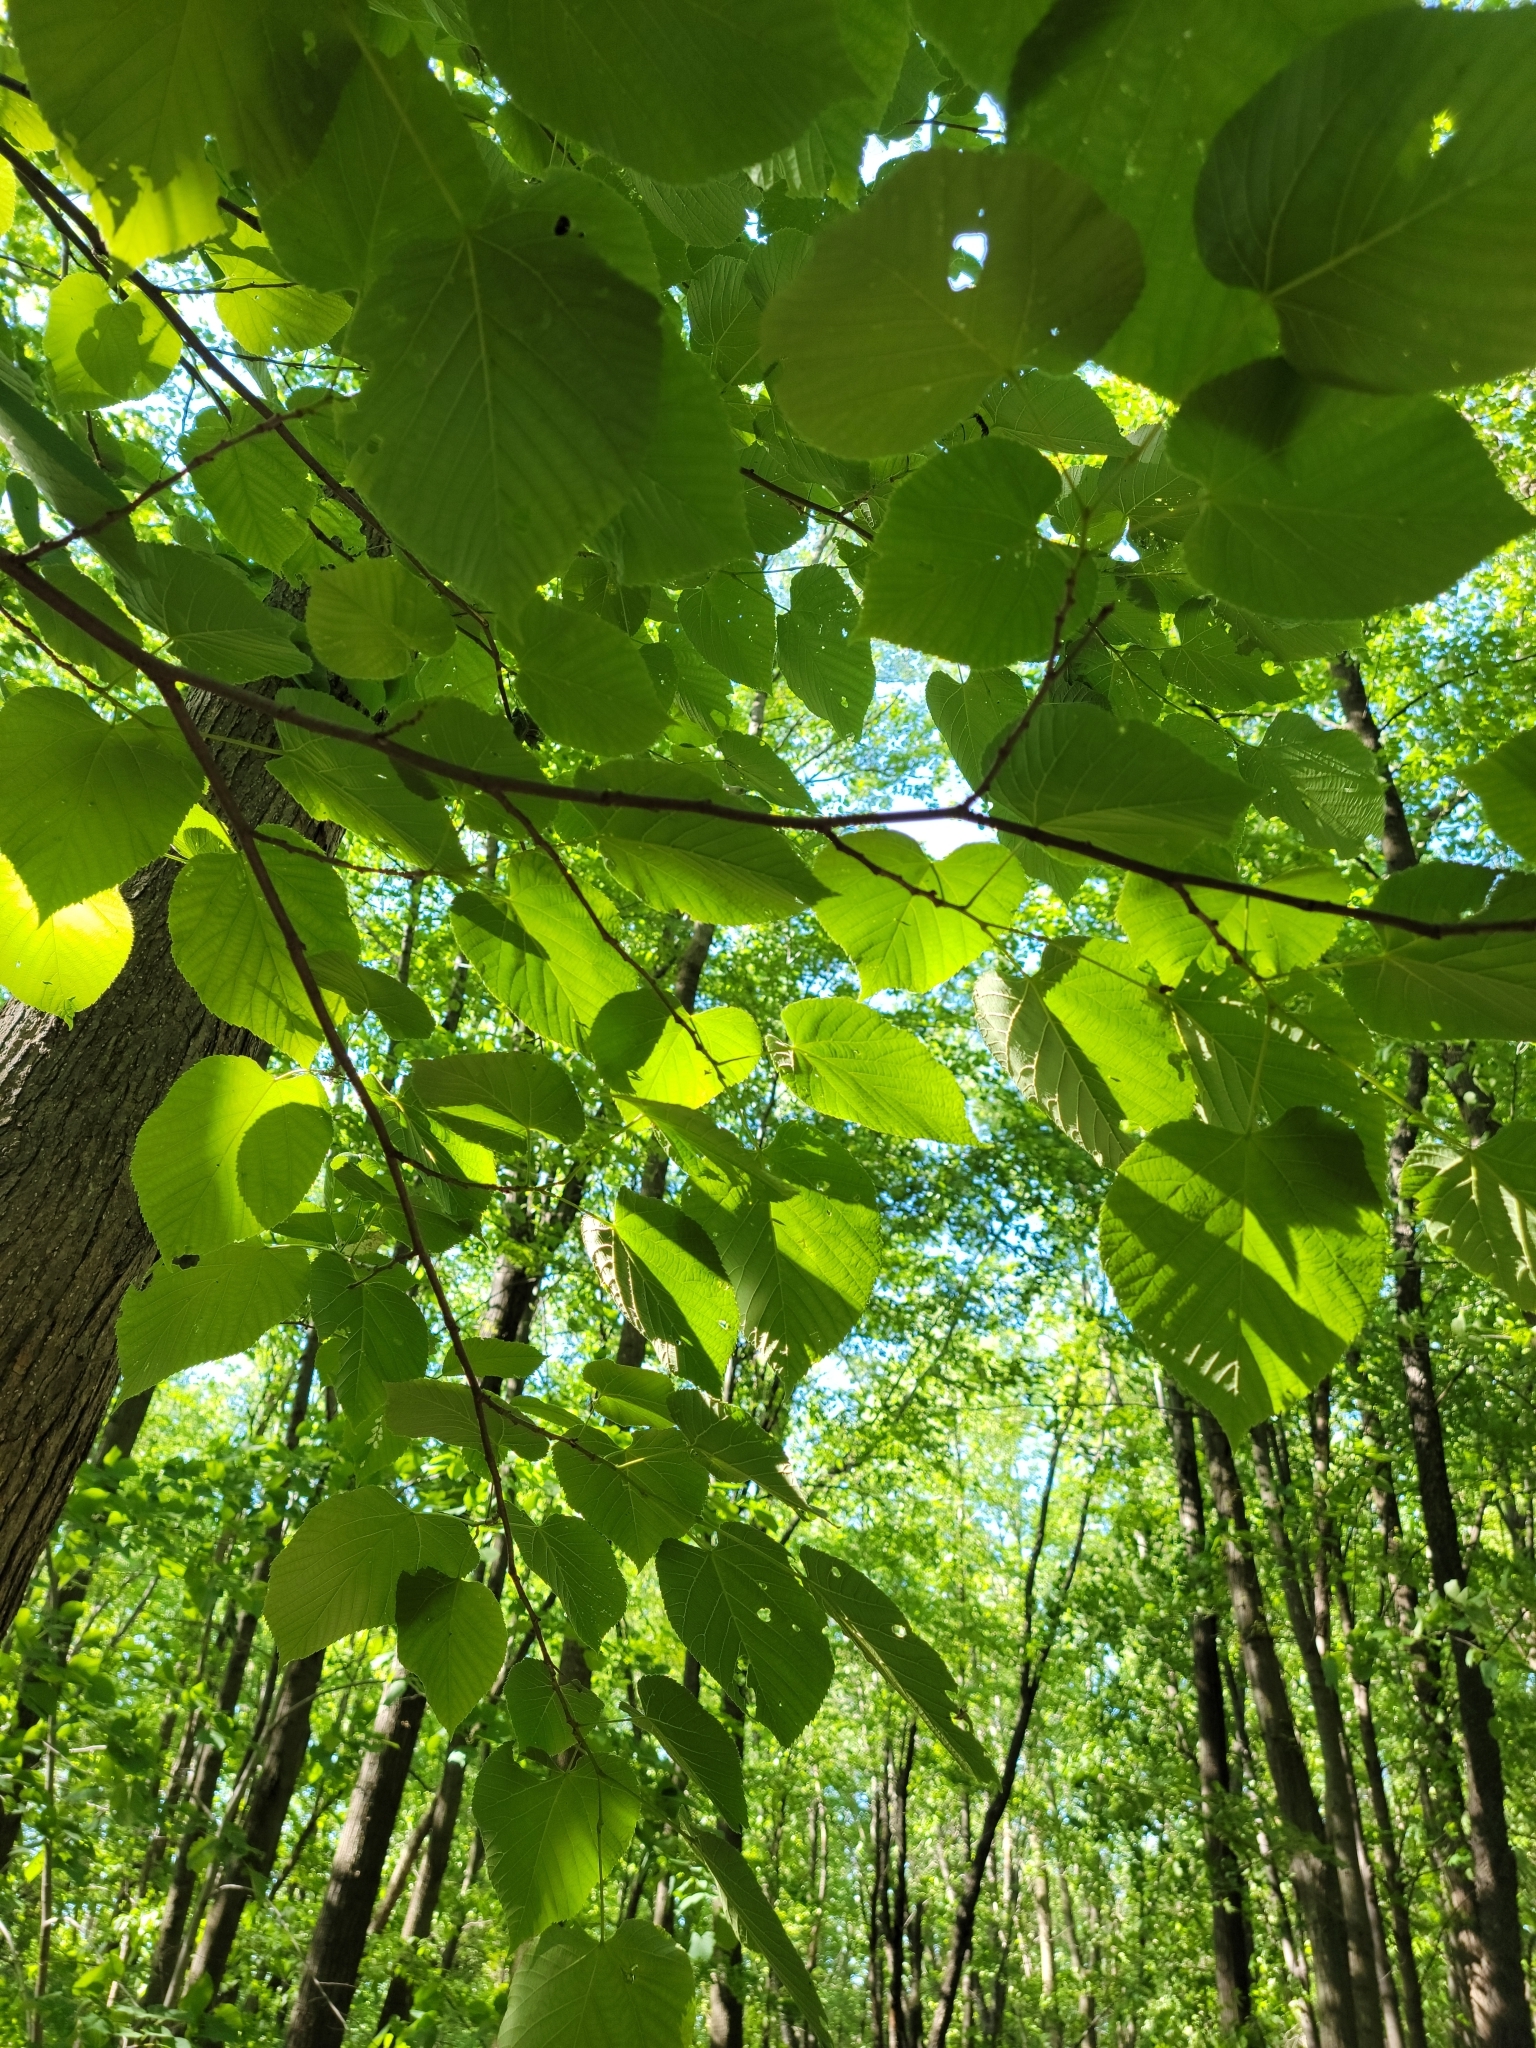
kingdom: Plantae
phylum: Tracheophyta
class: Magnoliopsida
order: Malvales
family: Malvaceae
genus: Tilia
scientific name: Tilia americana
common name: Basswood
